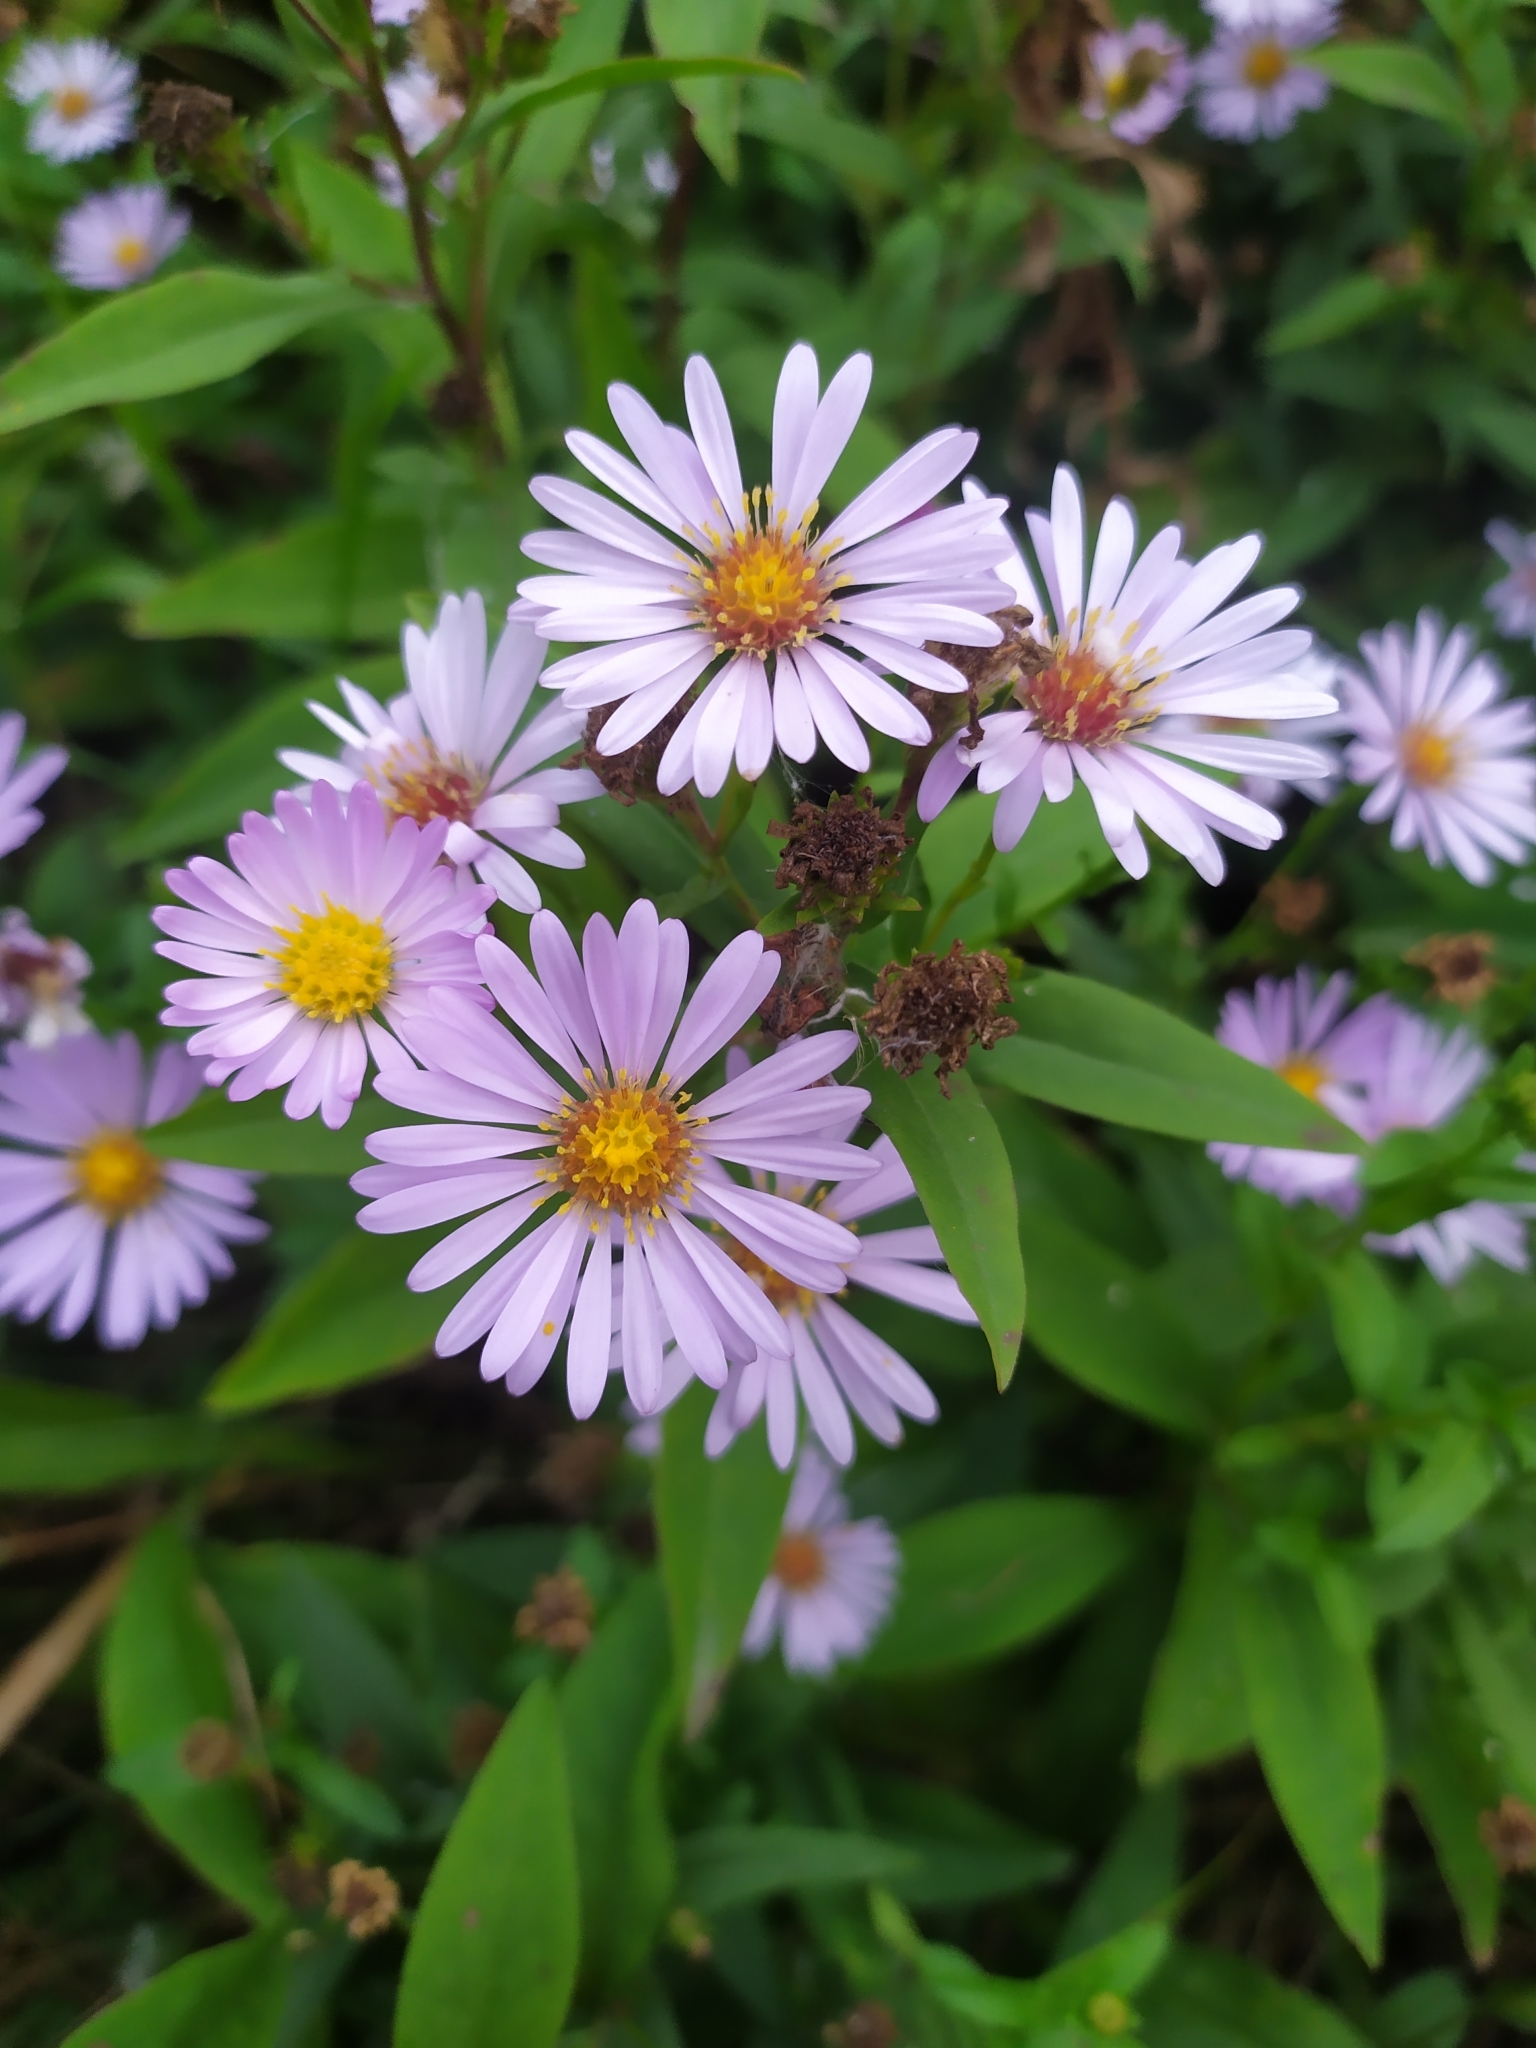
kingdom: Plantae
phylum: Tracheophyta
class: Magnoliopsida
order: Asterales
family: Asteraceae
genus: Symphyotrichum
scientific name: Symphyotrichum novi-belgii
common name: Michaelmas daisy
